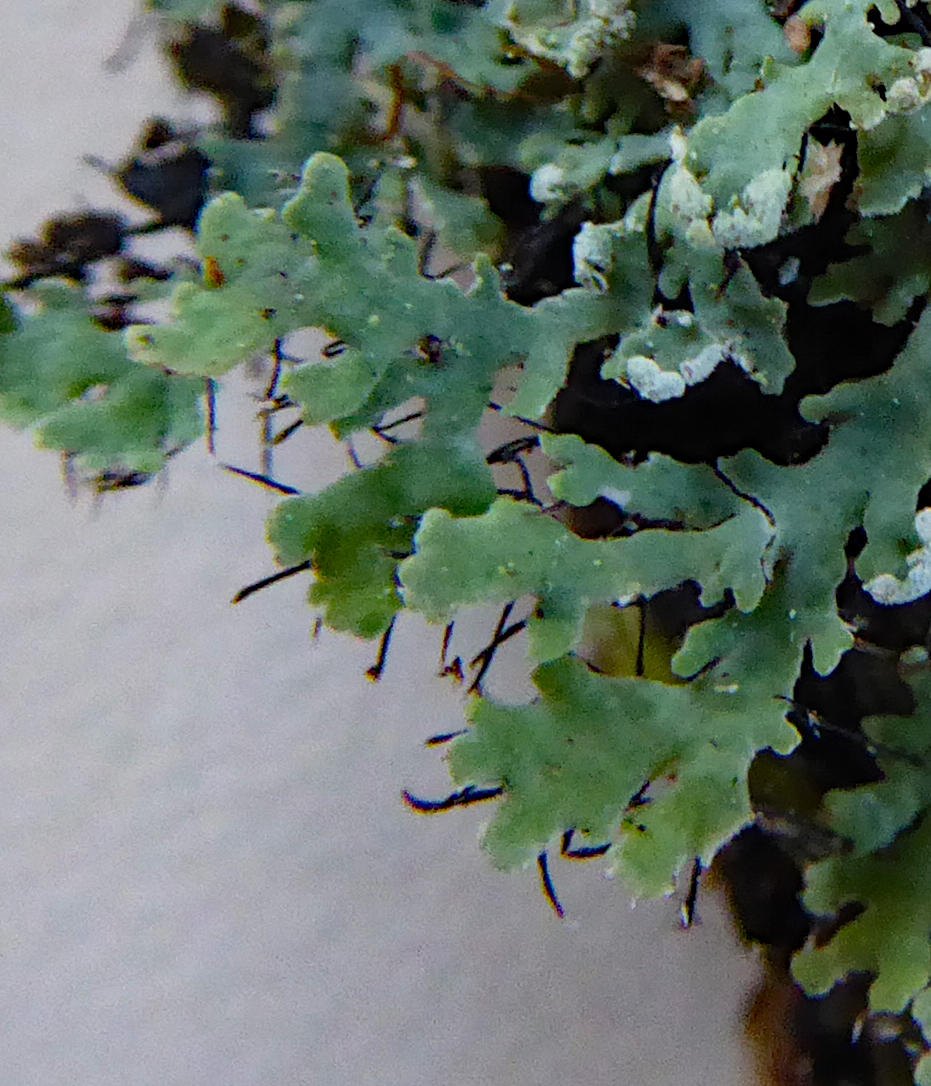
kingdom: Fungi
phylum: Ascomycota
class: Lecanoromycetes
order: Caliciales
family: Physciaceae
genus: Polyblastidium
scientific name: Polyblastidium casarettianum
